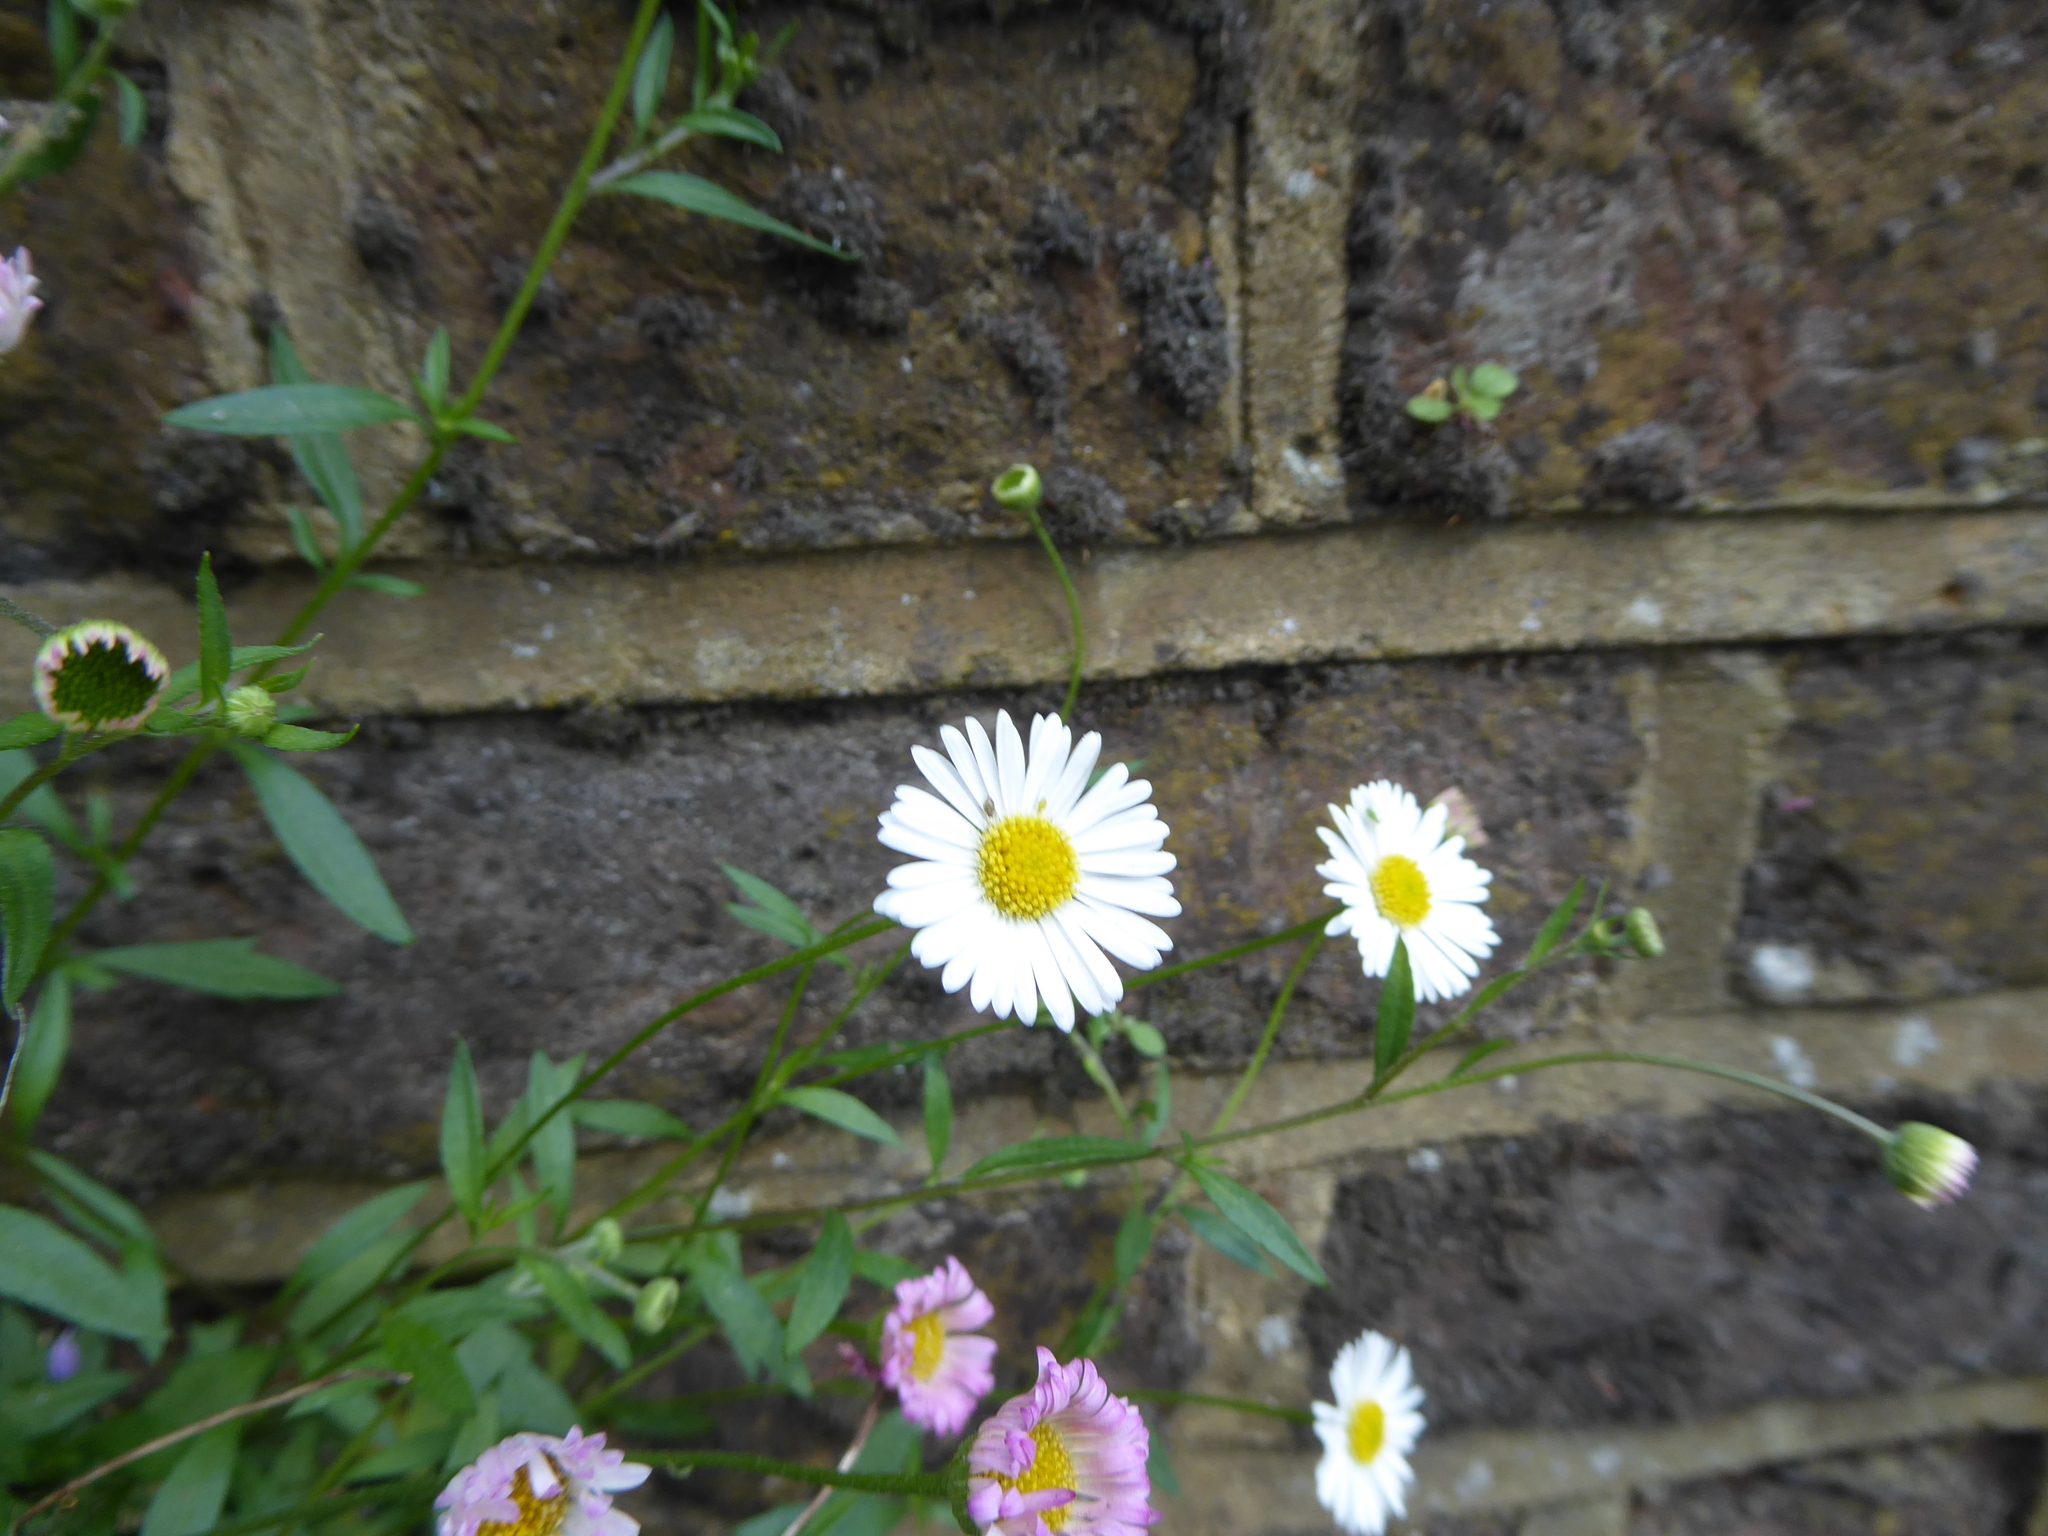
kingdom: Plantae
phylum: Tracheophyta
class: Magnoliopsida
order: Asterales
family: Asteraceae
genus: Erigeron
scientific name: Erigeron karvinskianus
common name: Mexican fleabane
